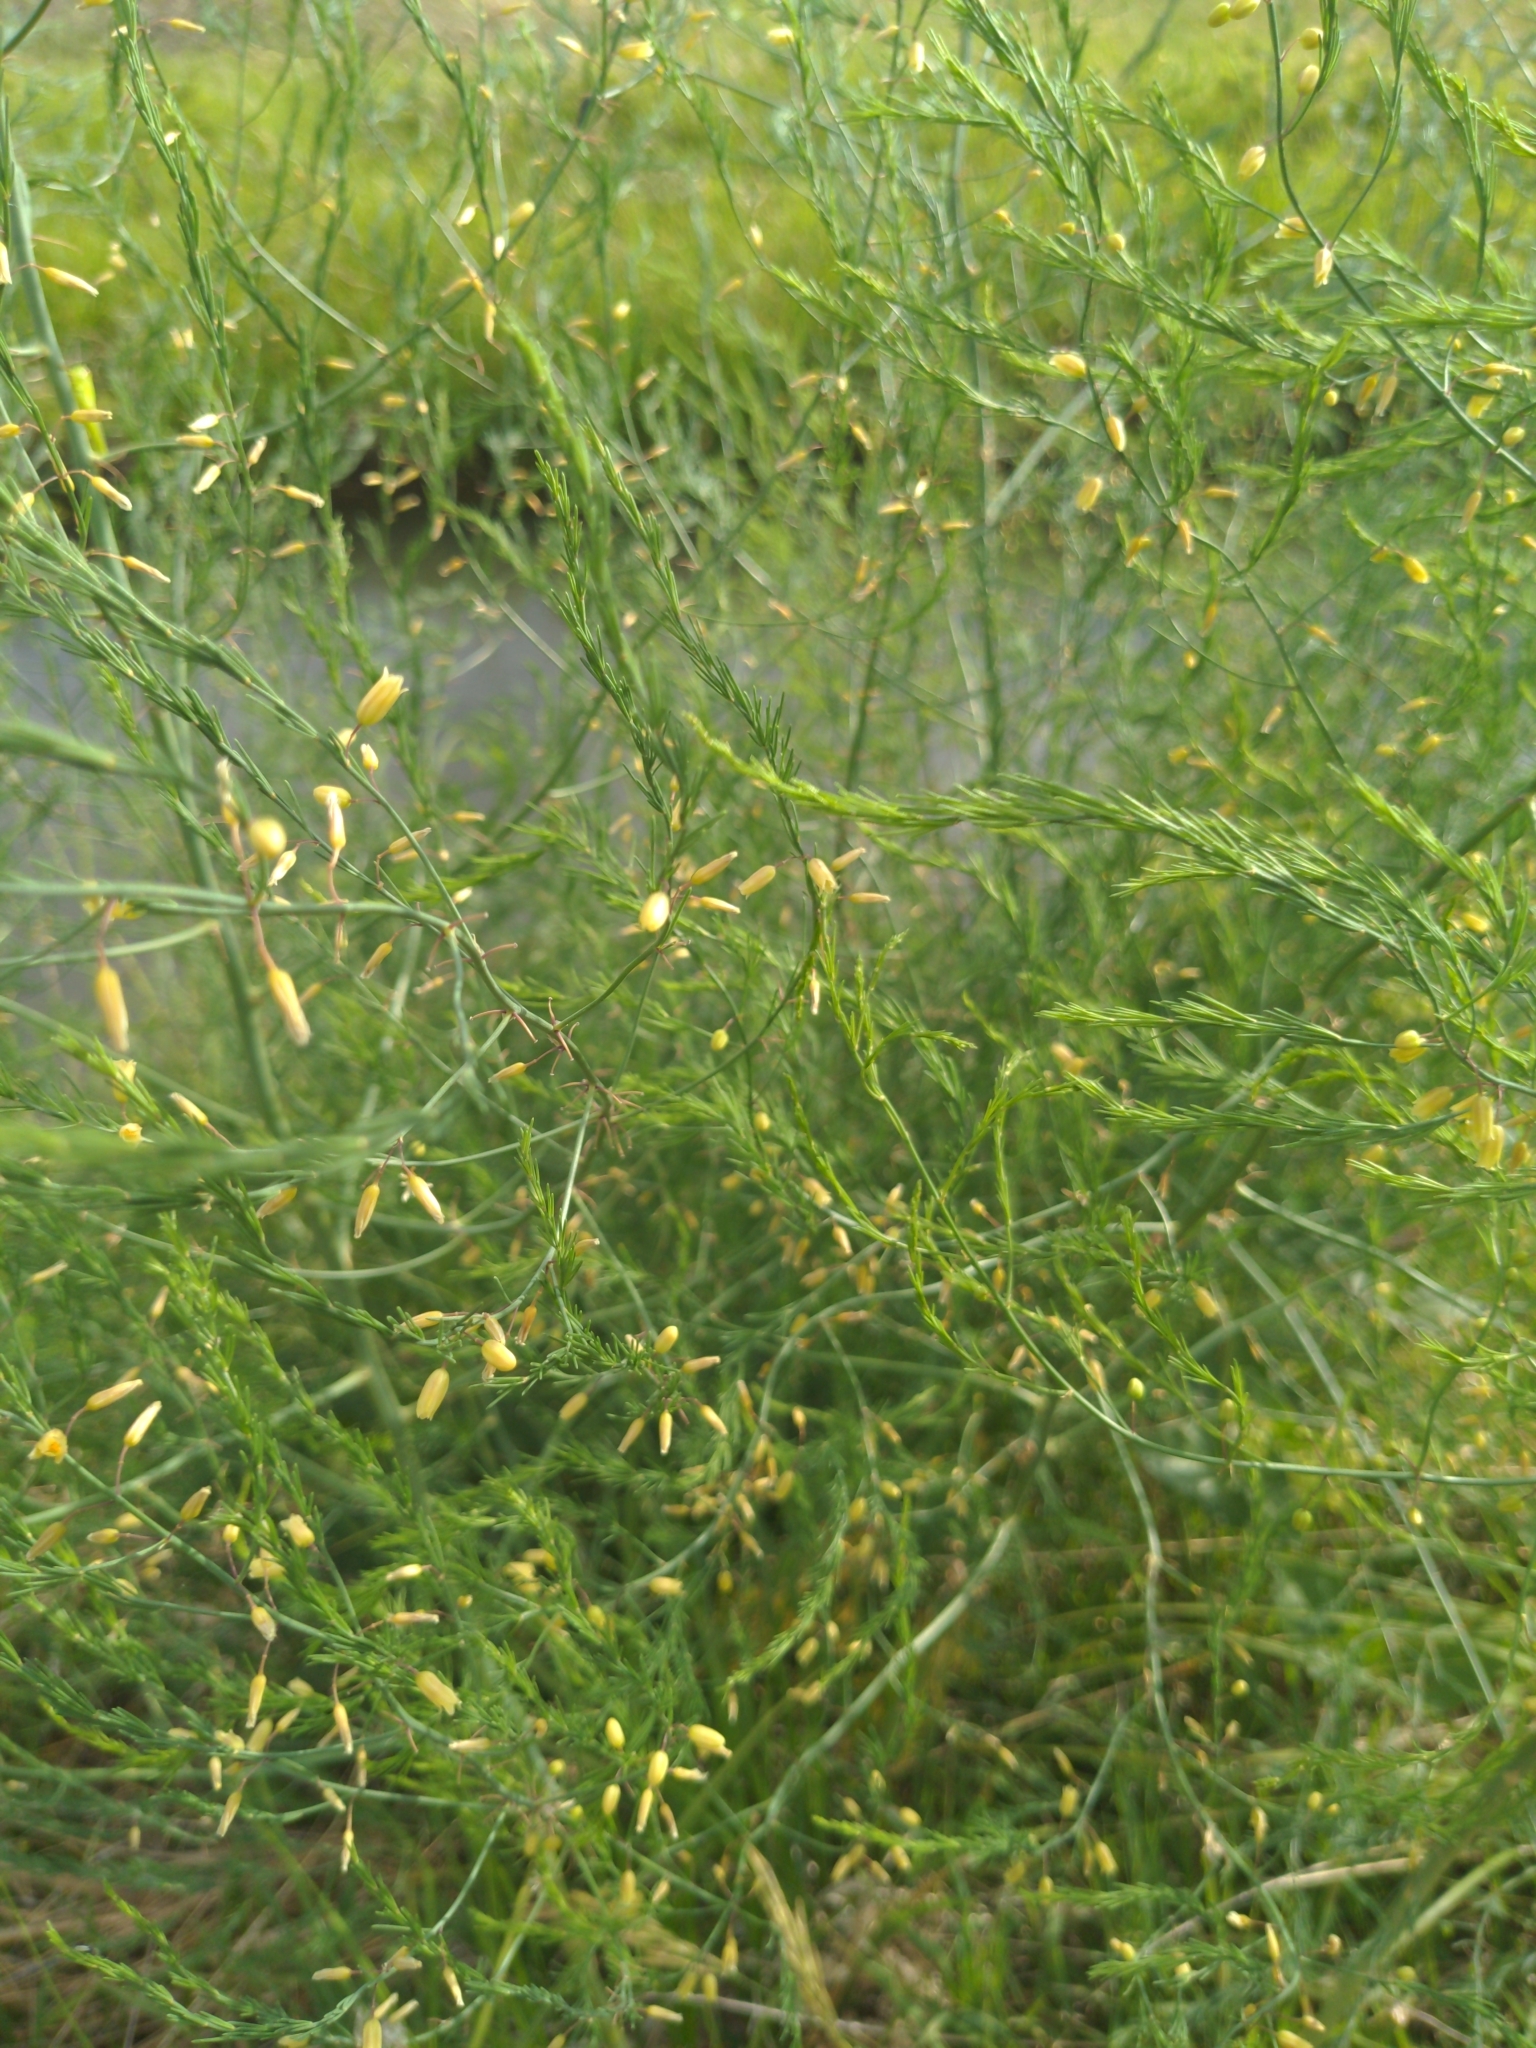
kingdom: Plantae
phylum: Tracheophyta
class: Liliopsida
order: Asparagales
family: Asparagaceae
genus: Asparagus
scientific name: Asparagus officinalis
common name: Garden asparagus
